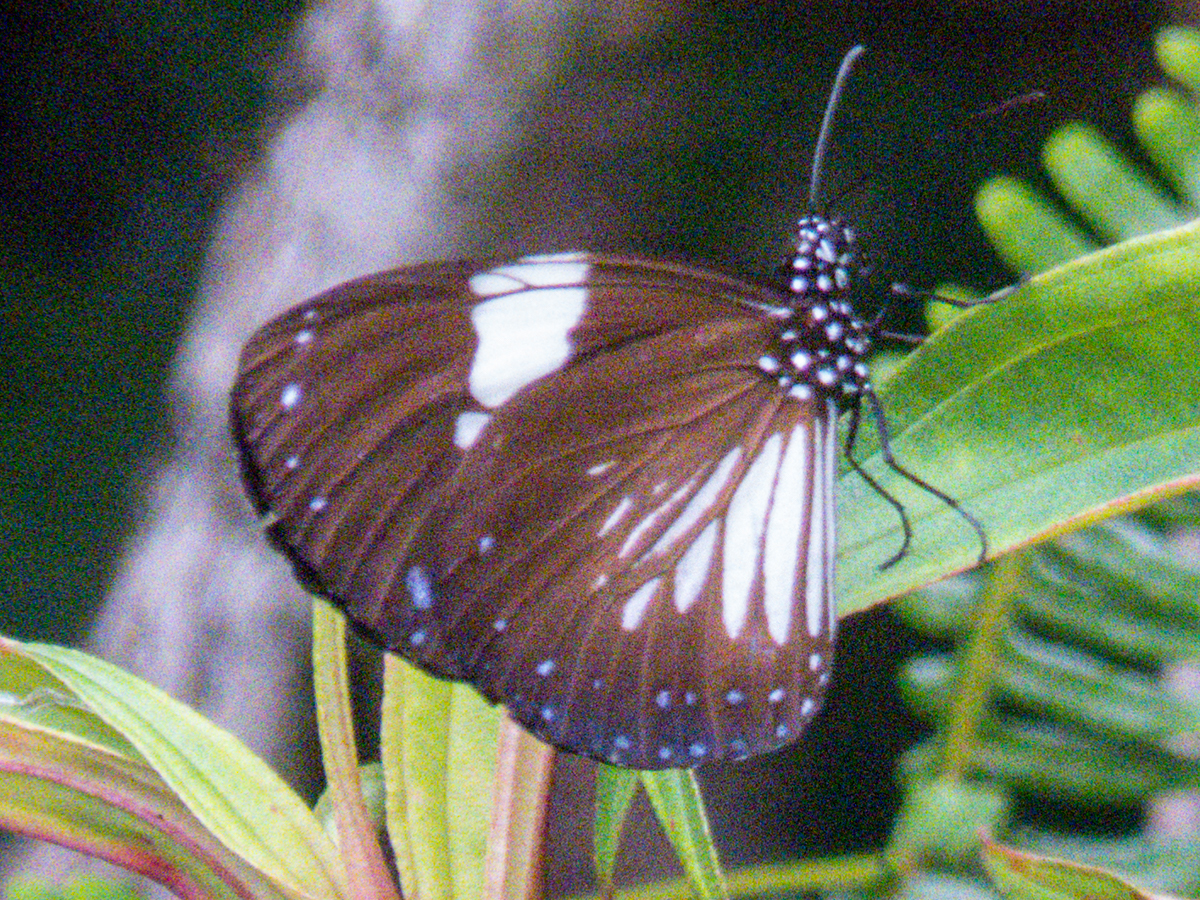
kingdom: Animalia
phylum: Arthropoda
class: Insecta
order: Lepidoptera
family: Nymphalidae
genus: Euploea
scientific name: Euploea radamanthus
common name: Magpie crow butterfly
